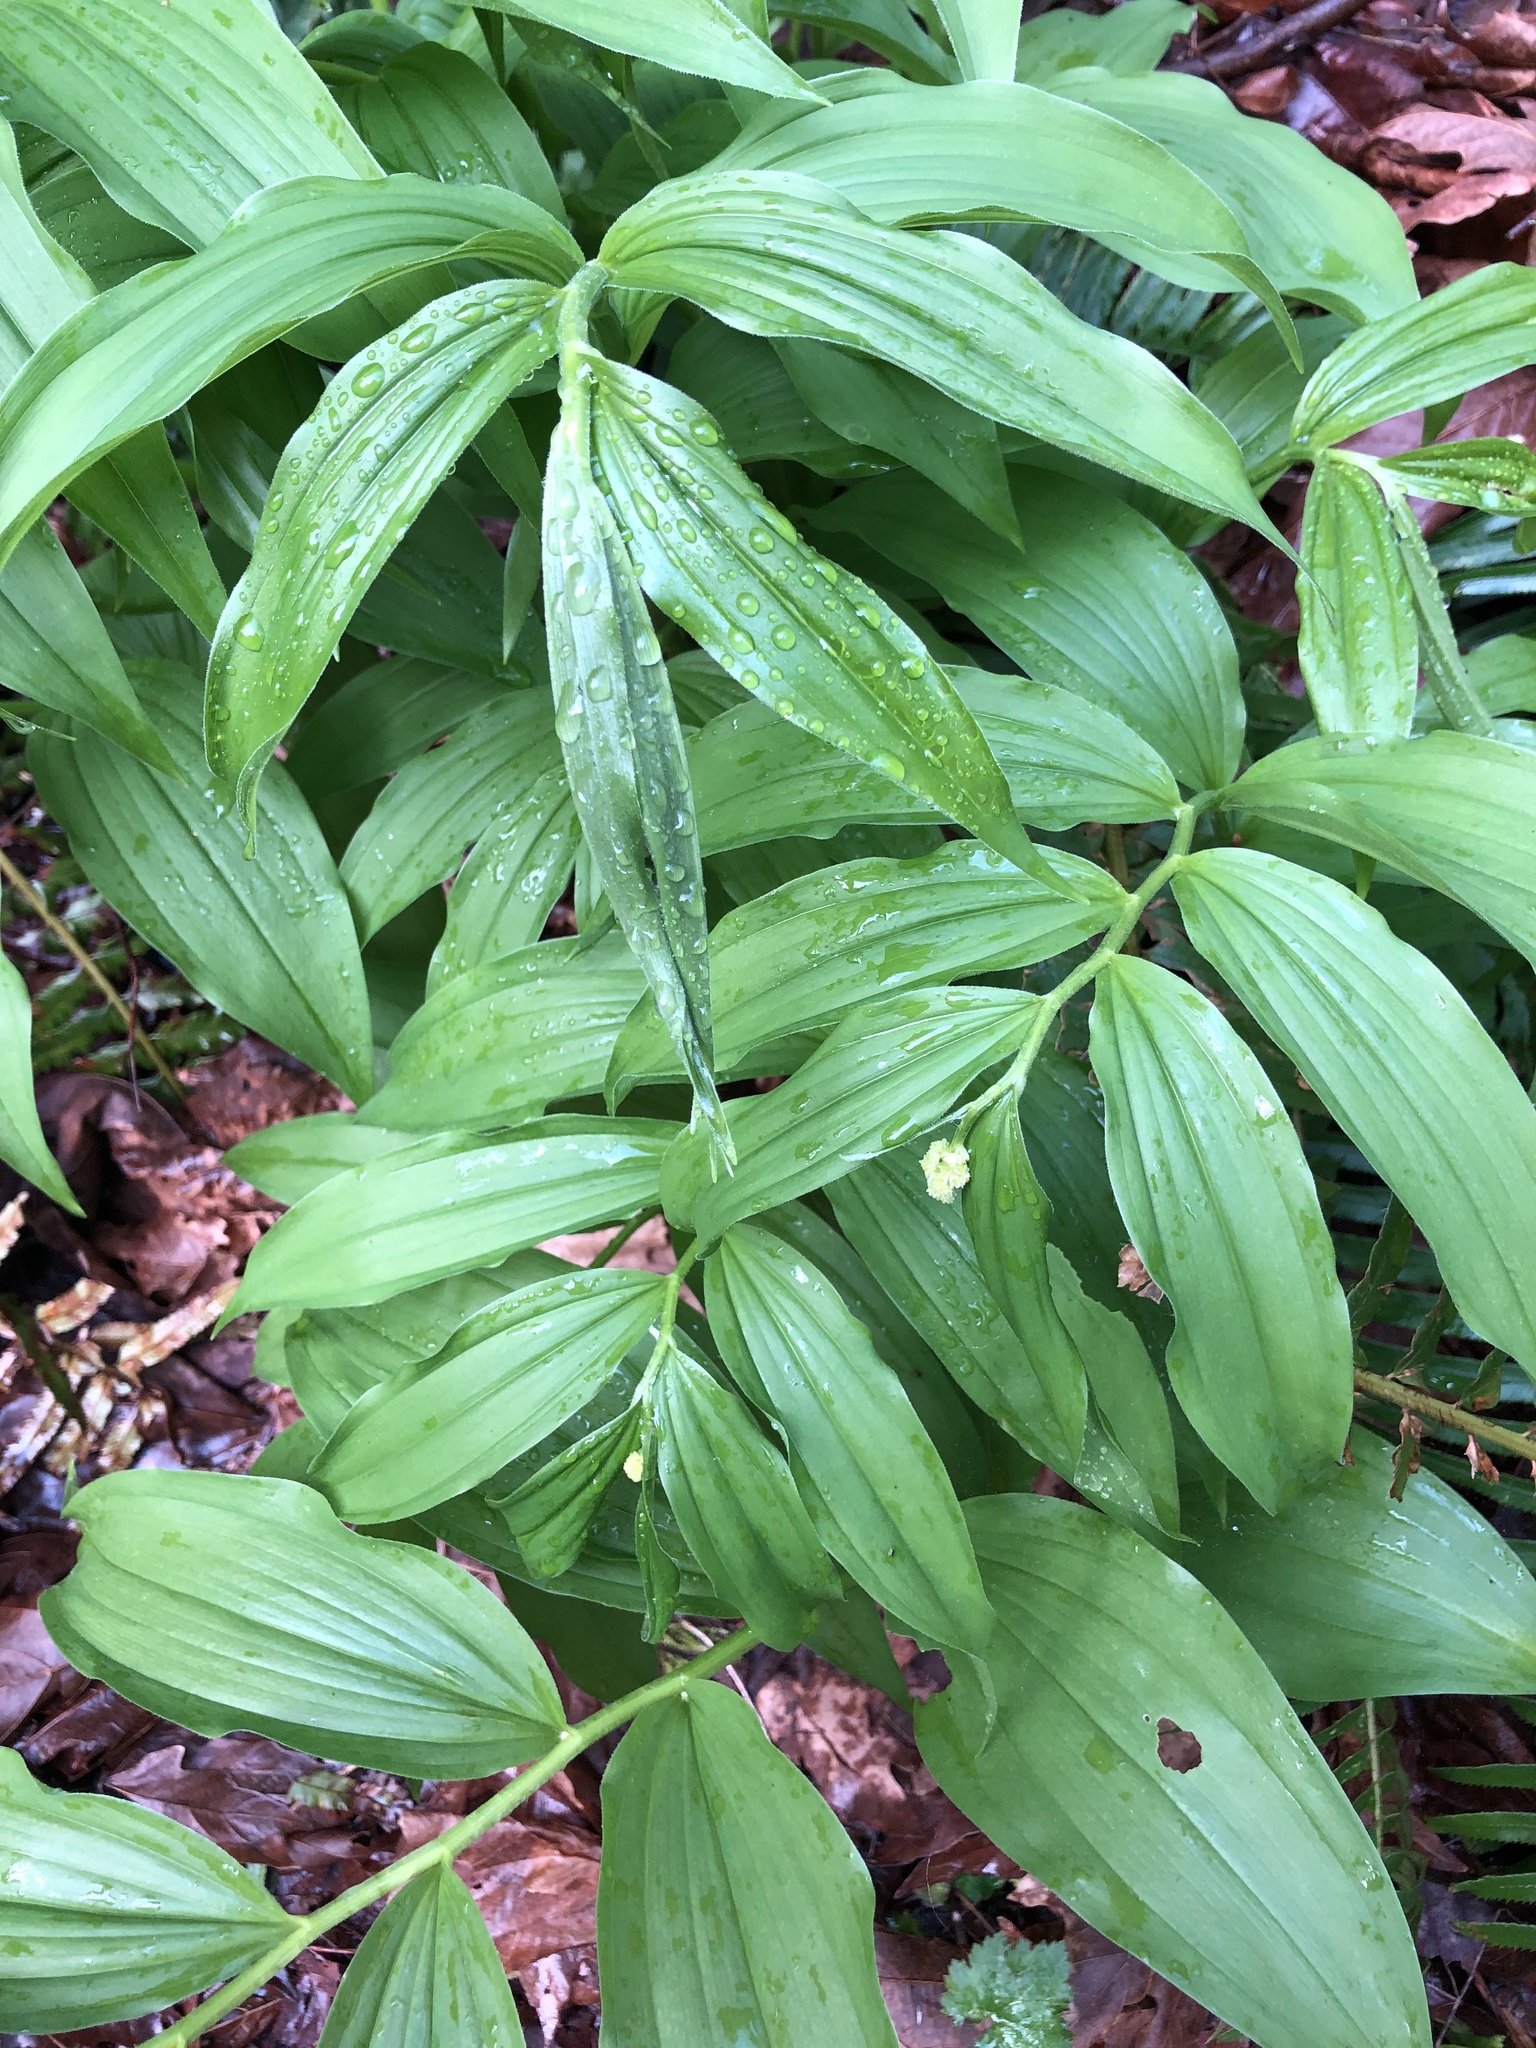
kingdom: Plantae
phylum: Tracheophyta
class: Liliopsida
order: Asparagales
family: Asparagaceae
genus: Maianthemum
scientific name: Maianthemum racemosum
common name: False spikenard
